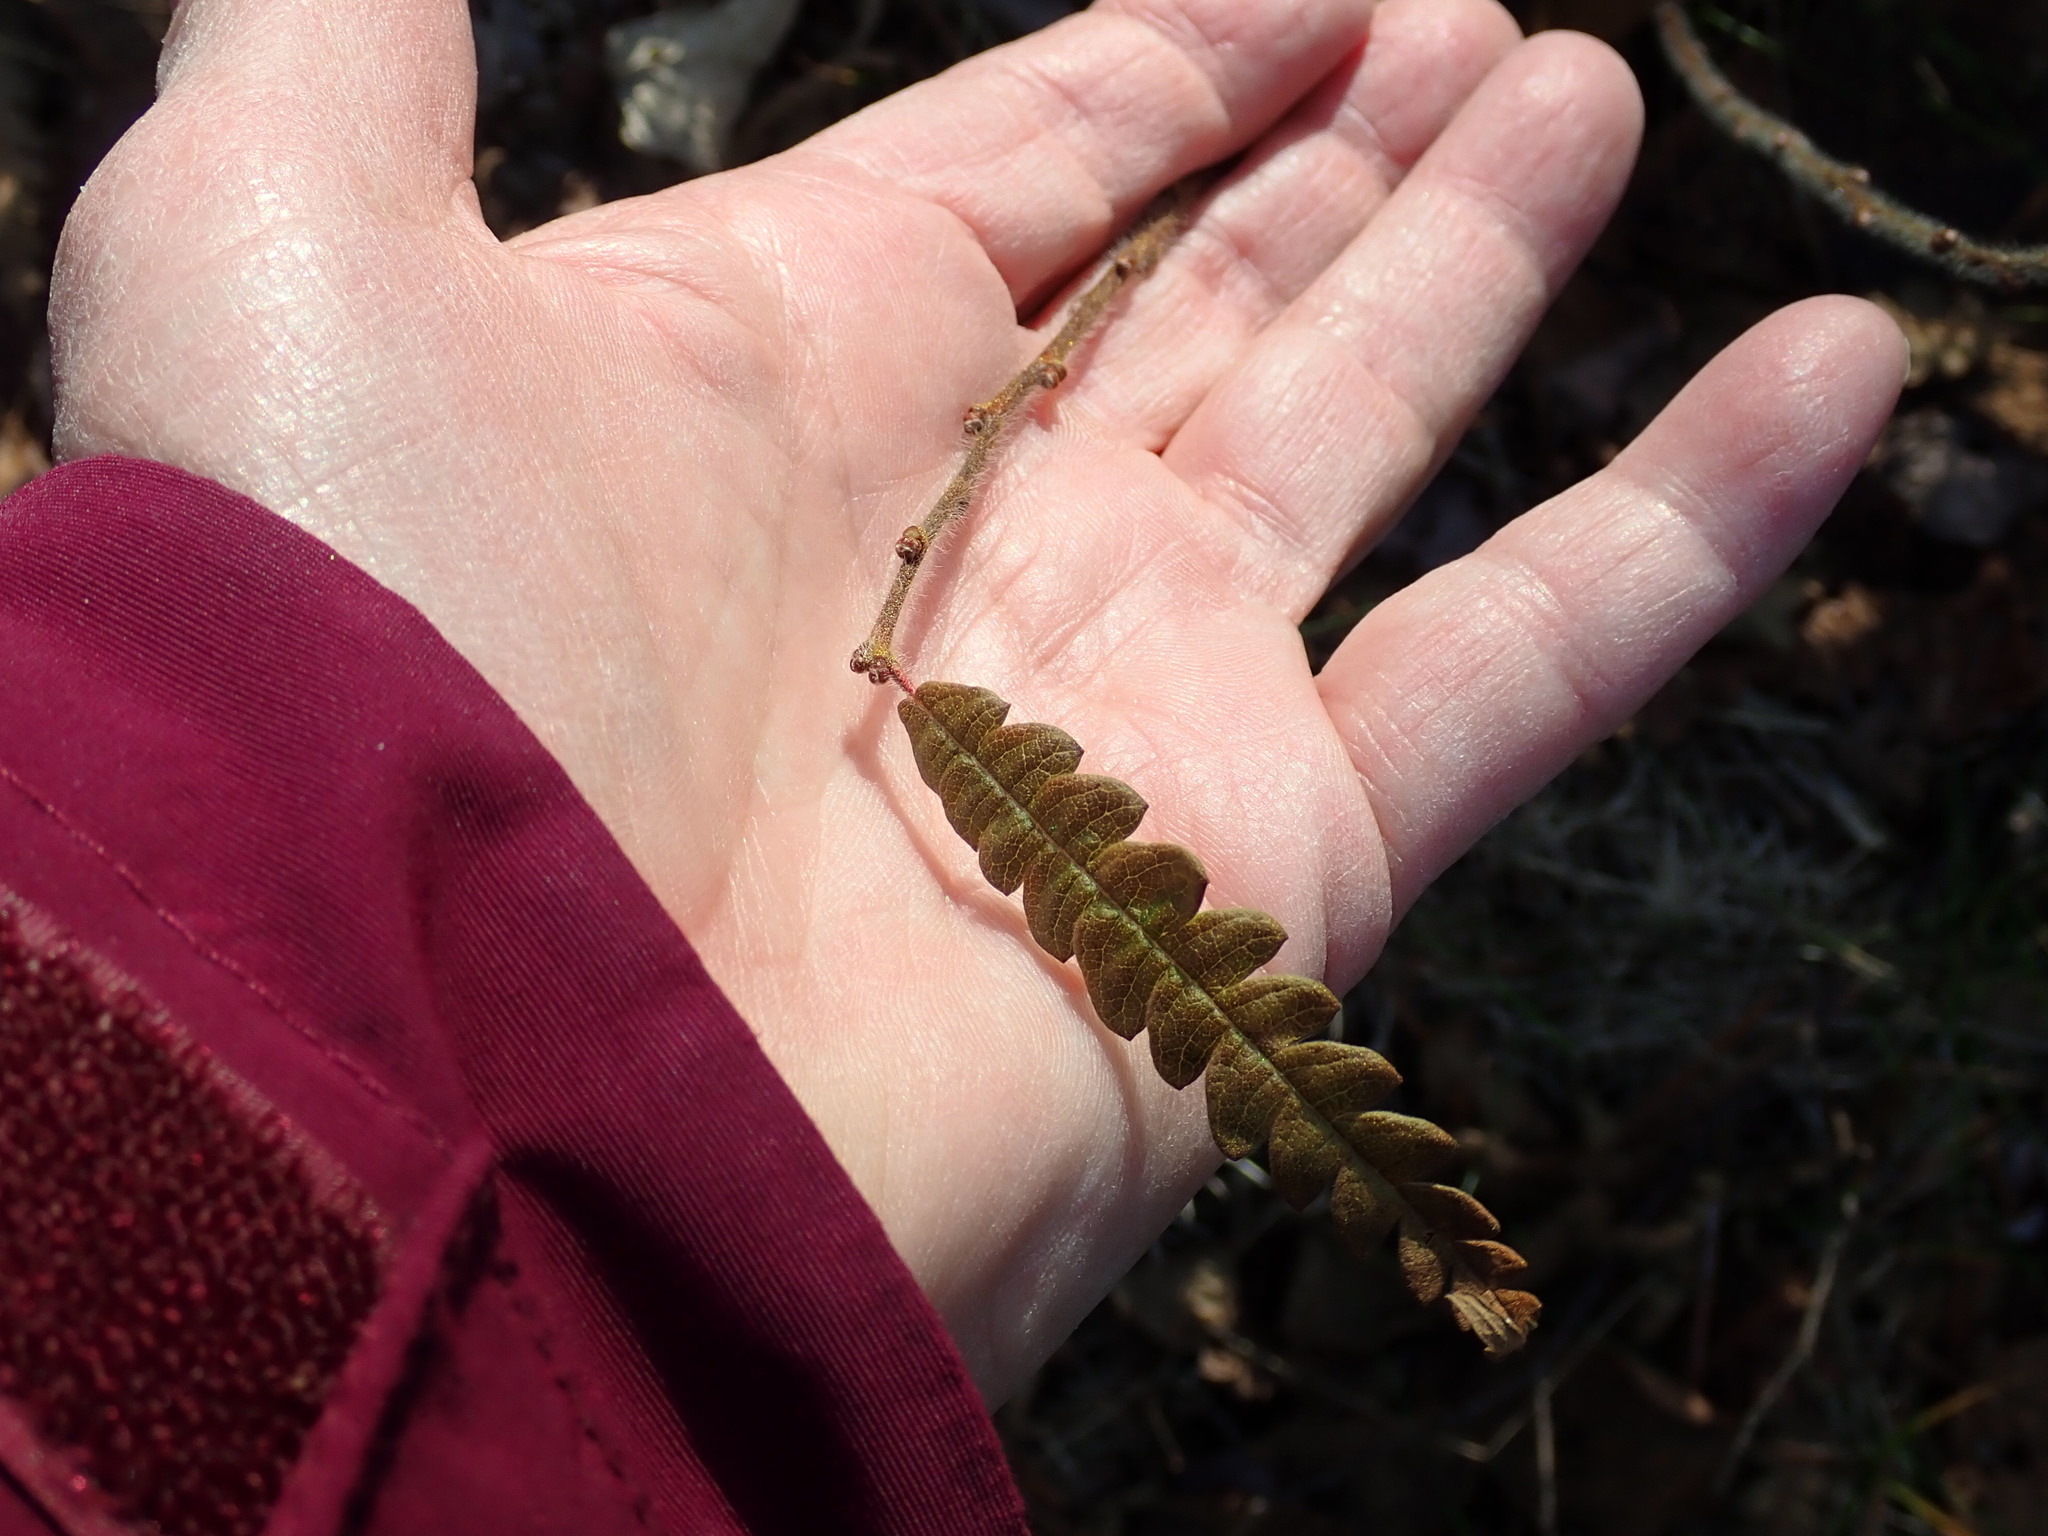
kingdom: Plantae
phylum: Tracheophyta
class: Magnoliopsida
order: Fagales
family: Myricaceae
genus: Comptonia
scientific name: Comptonia peregrina
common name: Sweet-fern
